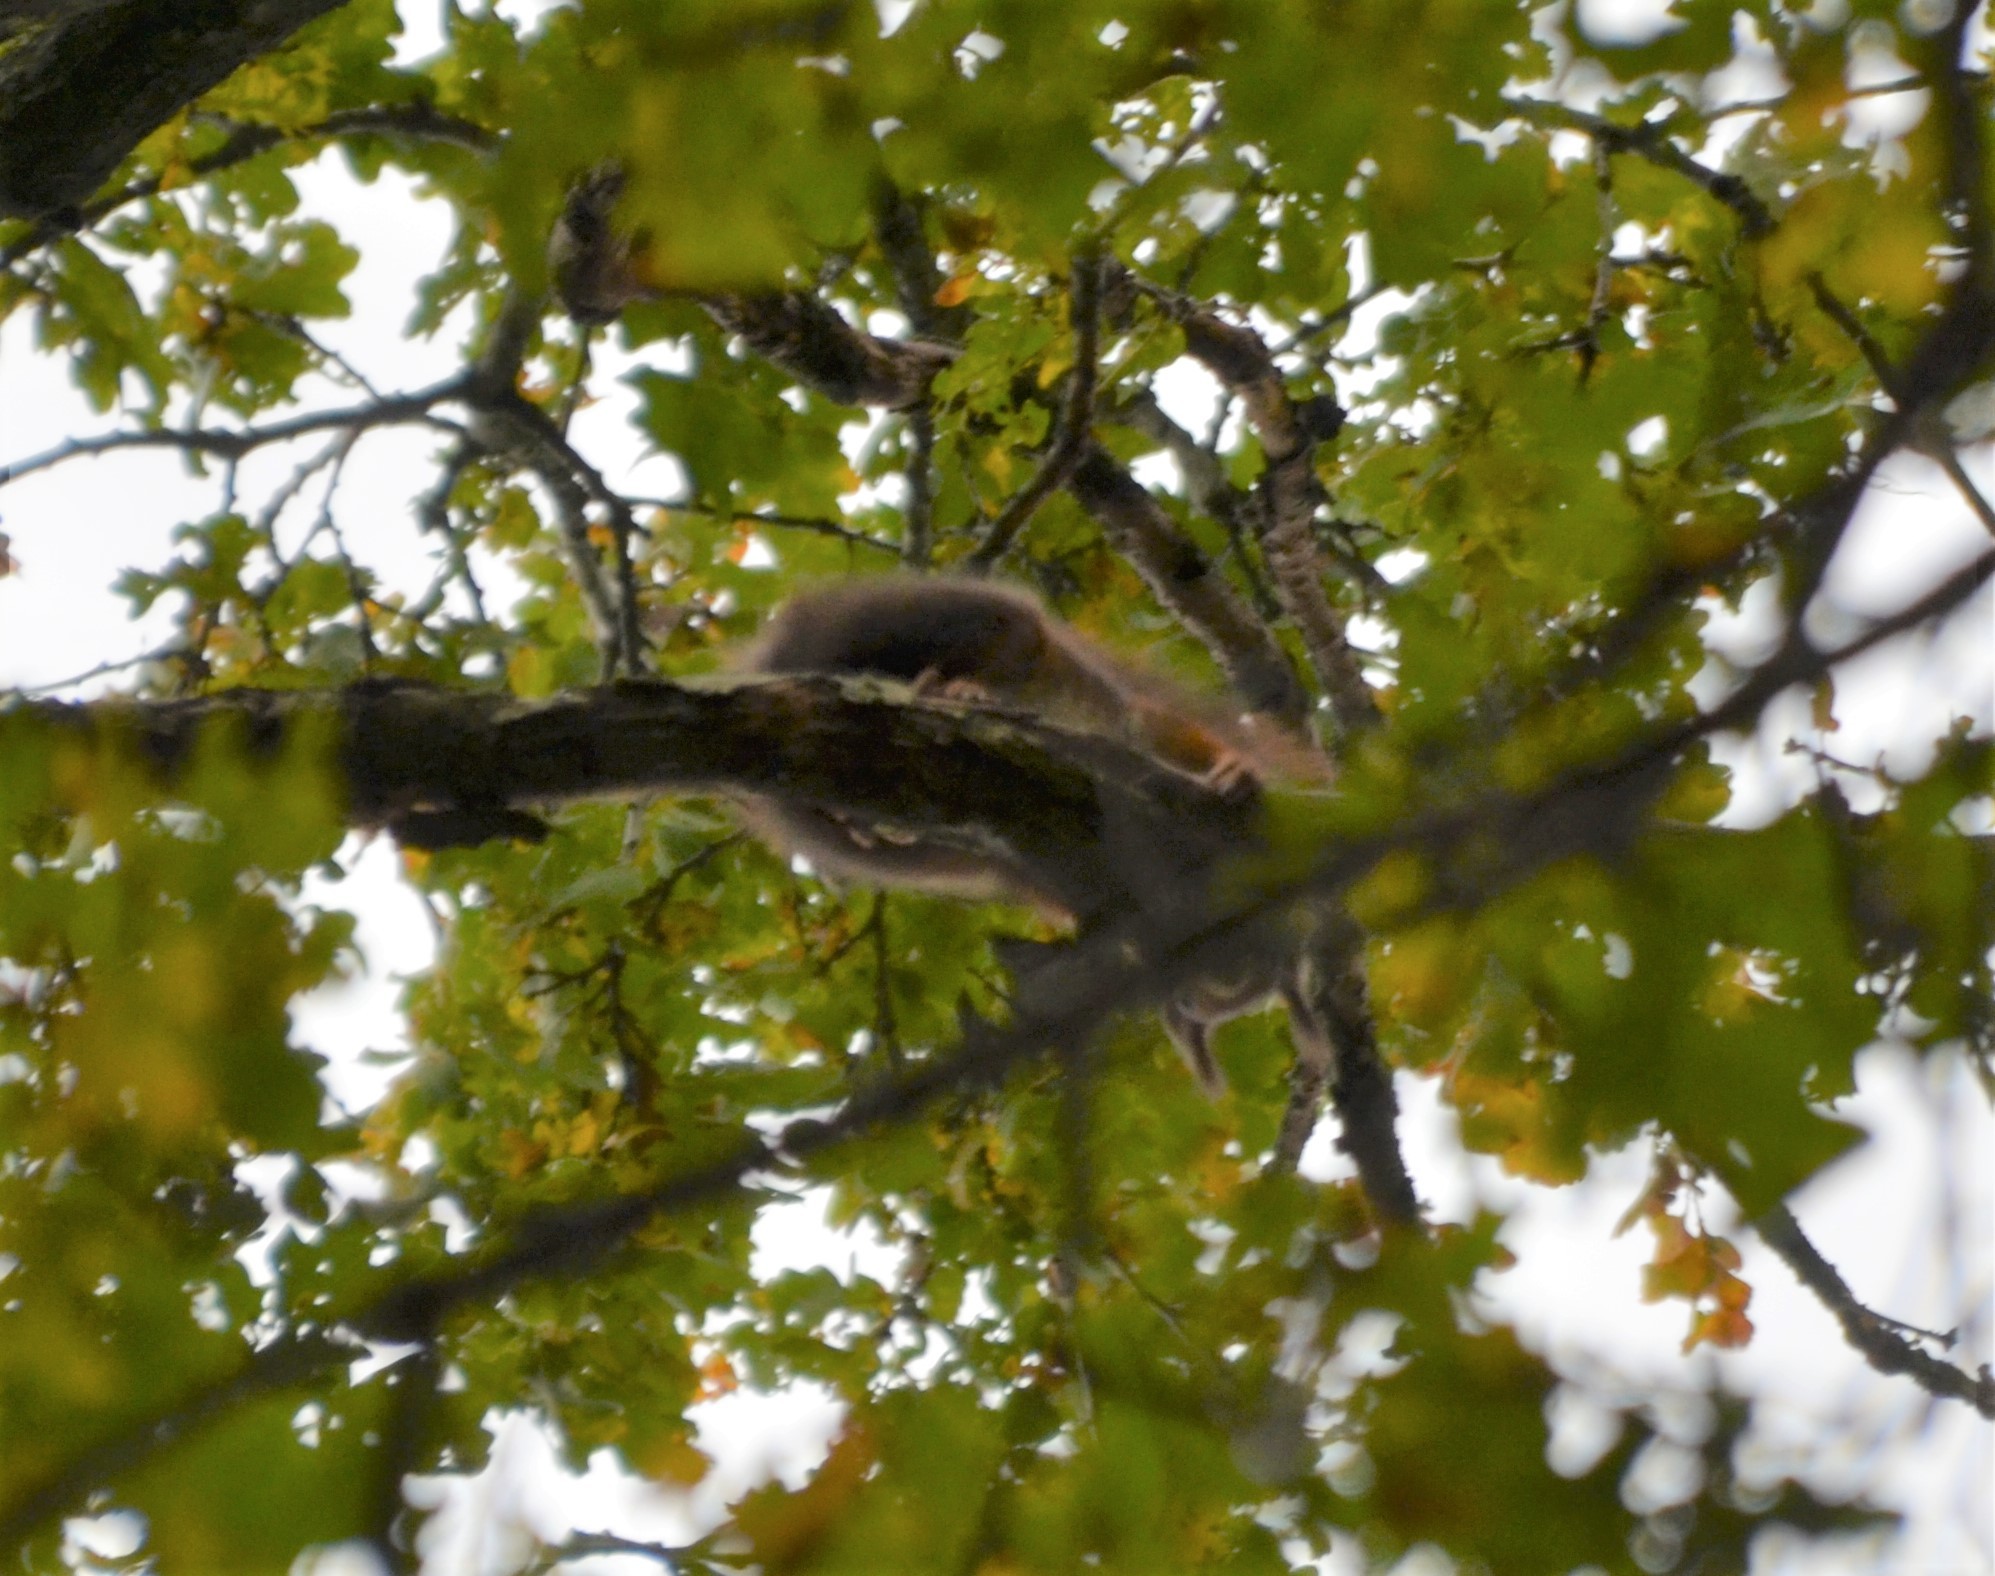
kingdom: Animalia
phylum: Chordata
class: Mammalia
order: Rodentia
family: Sciuridae
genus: Sciurus
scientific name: Sciurus vulgaris
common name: Eurasian red squirrel
